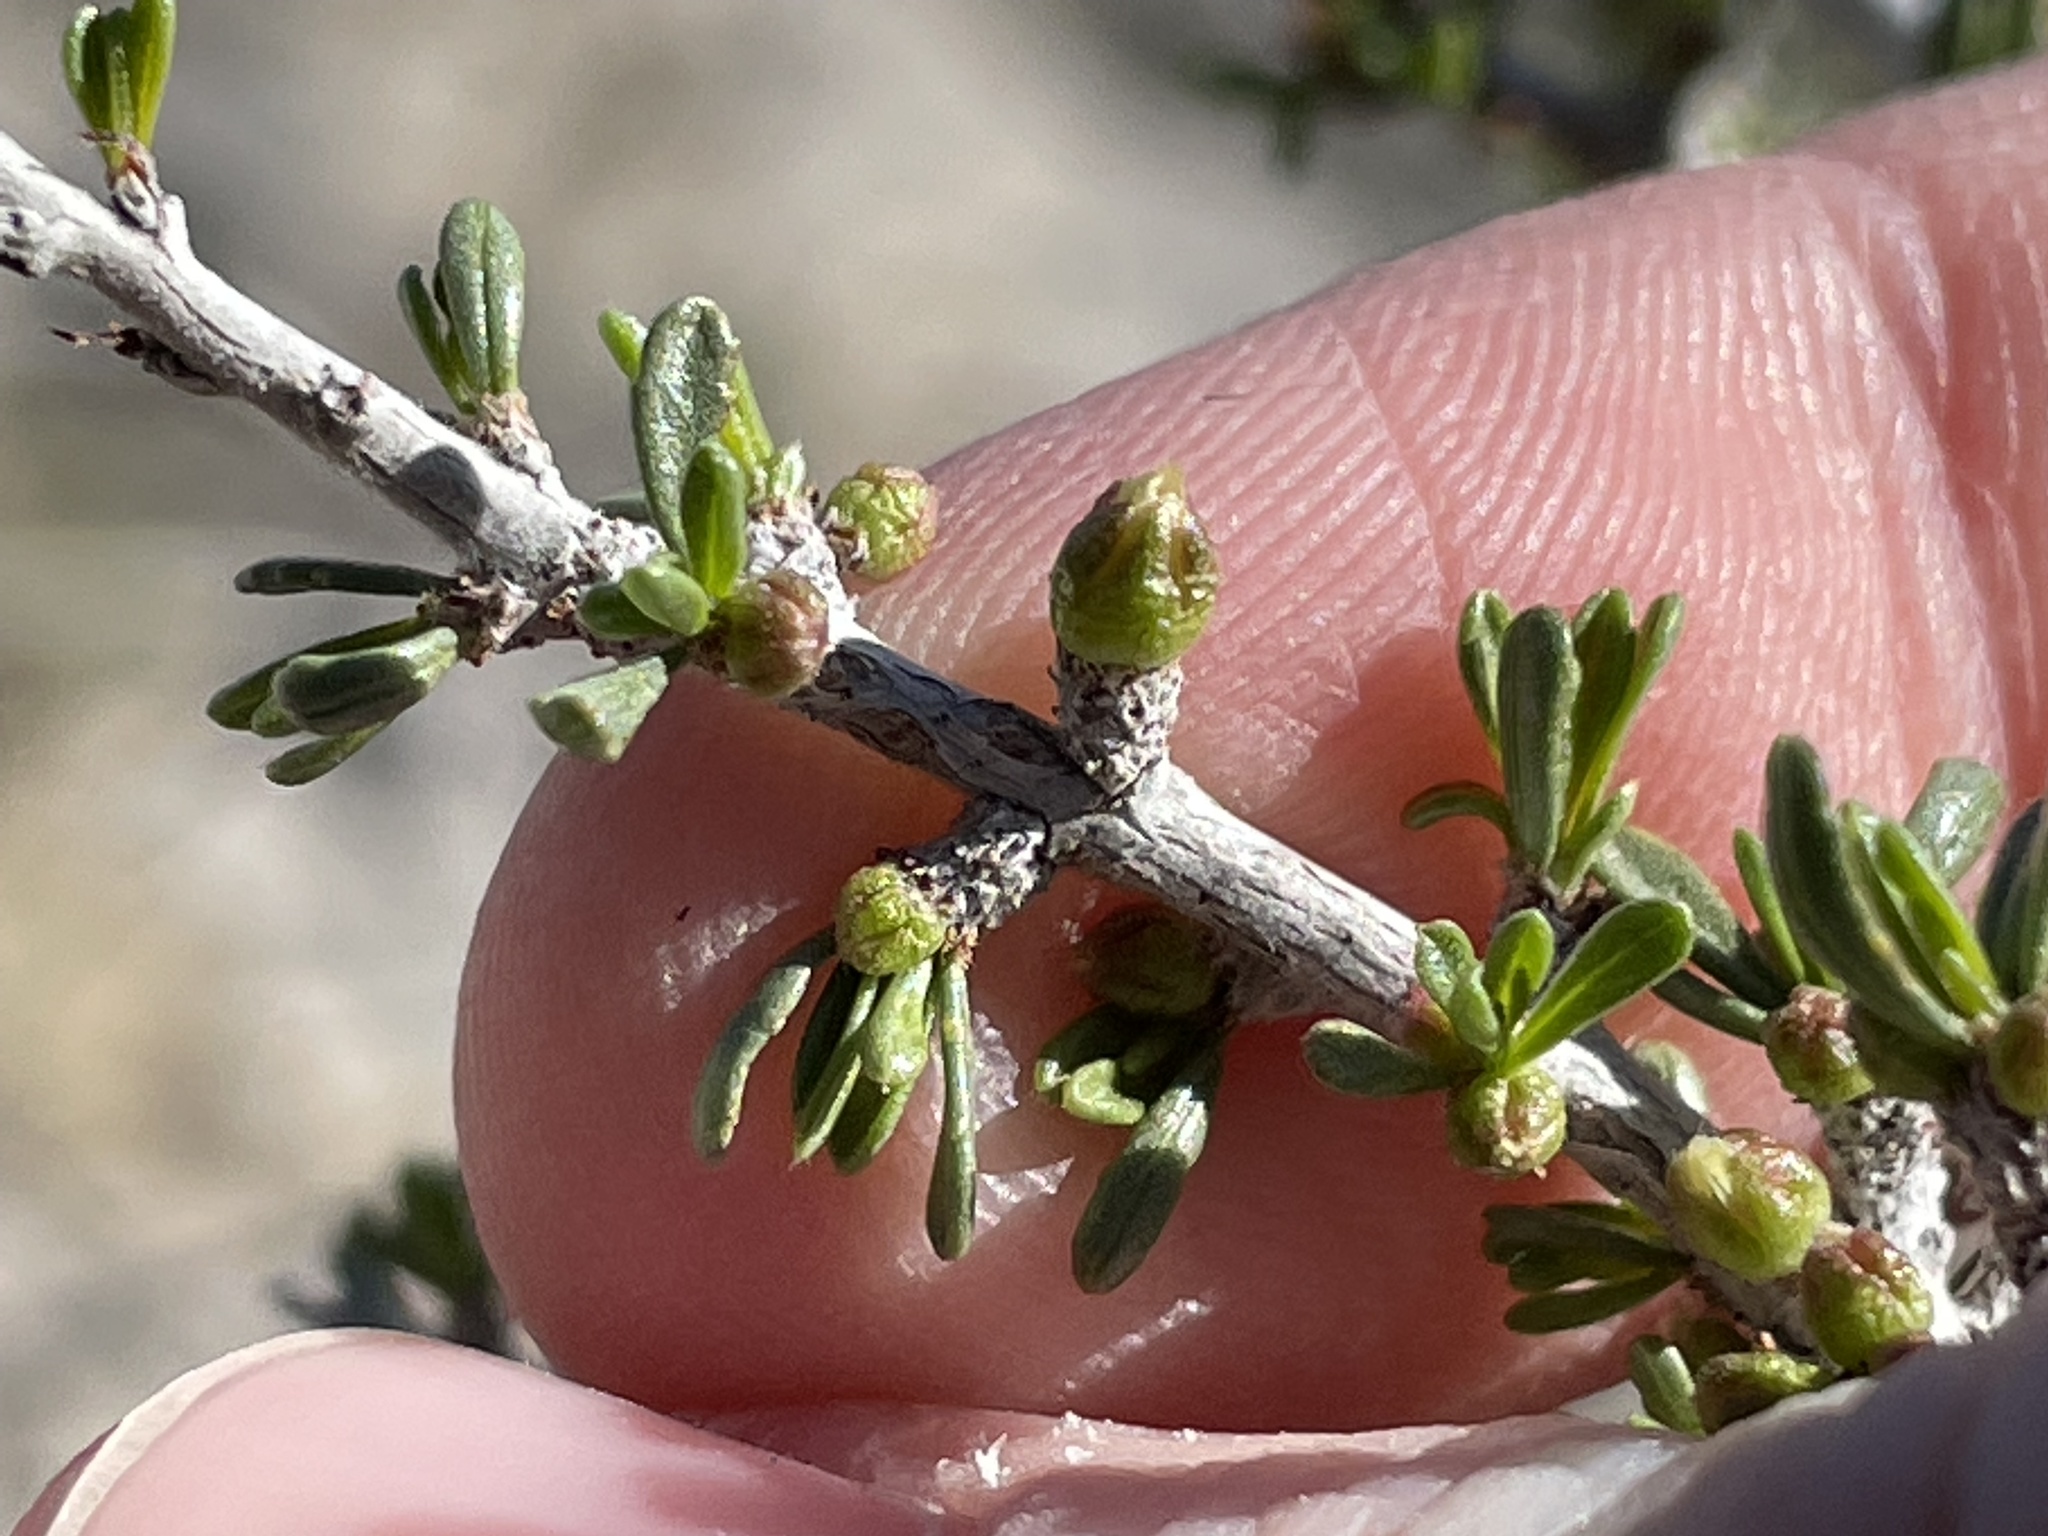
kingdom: Plantae
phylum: Tracheophyta
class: Magnoliopsida
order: Rosales
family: Rosaceae
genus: Prunus
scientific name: Prunus fasciculata
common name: Desert almond
